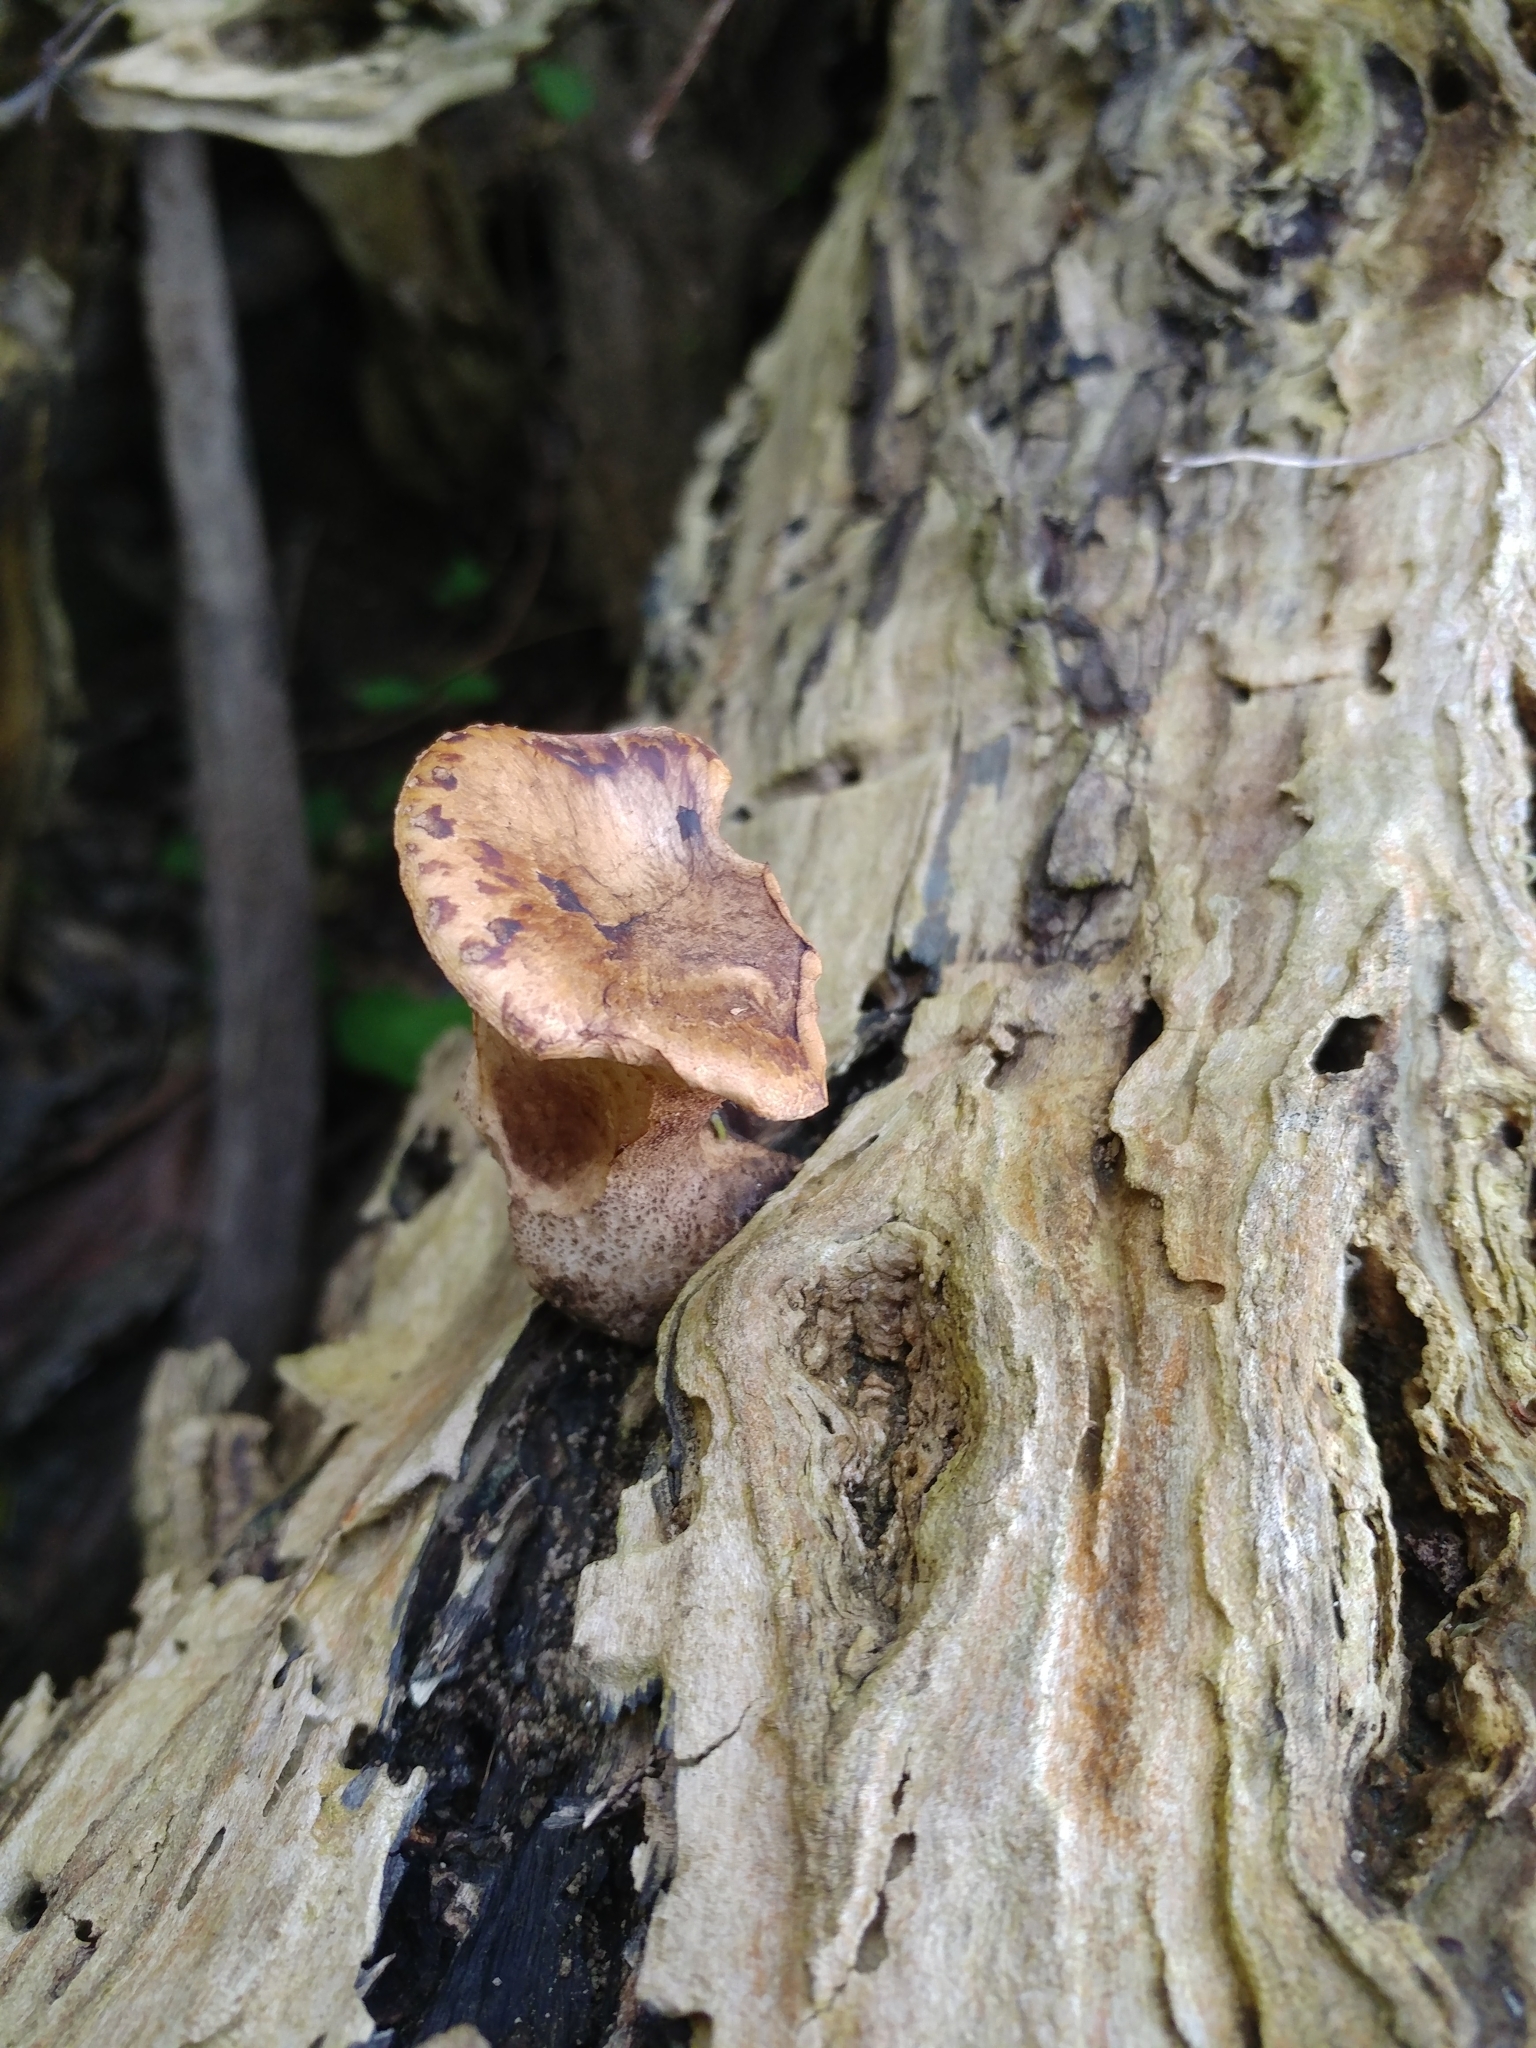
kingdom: Fungi
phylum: Basidiomycota
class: Agaricomycetes
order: Polyporales
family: Polyporaceae
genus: Cerioporus
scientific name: Cerioporus squamosus
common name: Dryad's saddle
